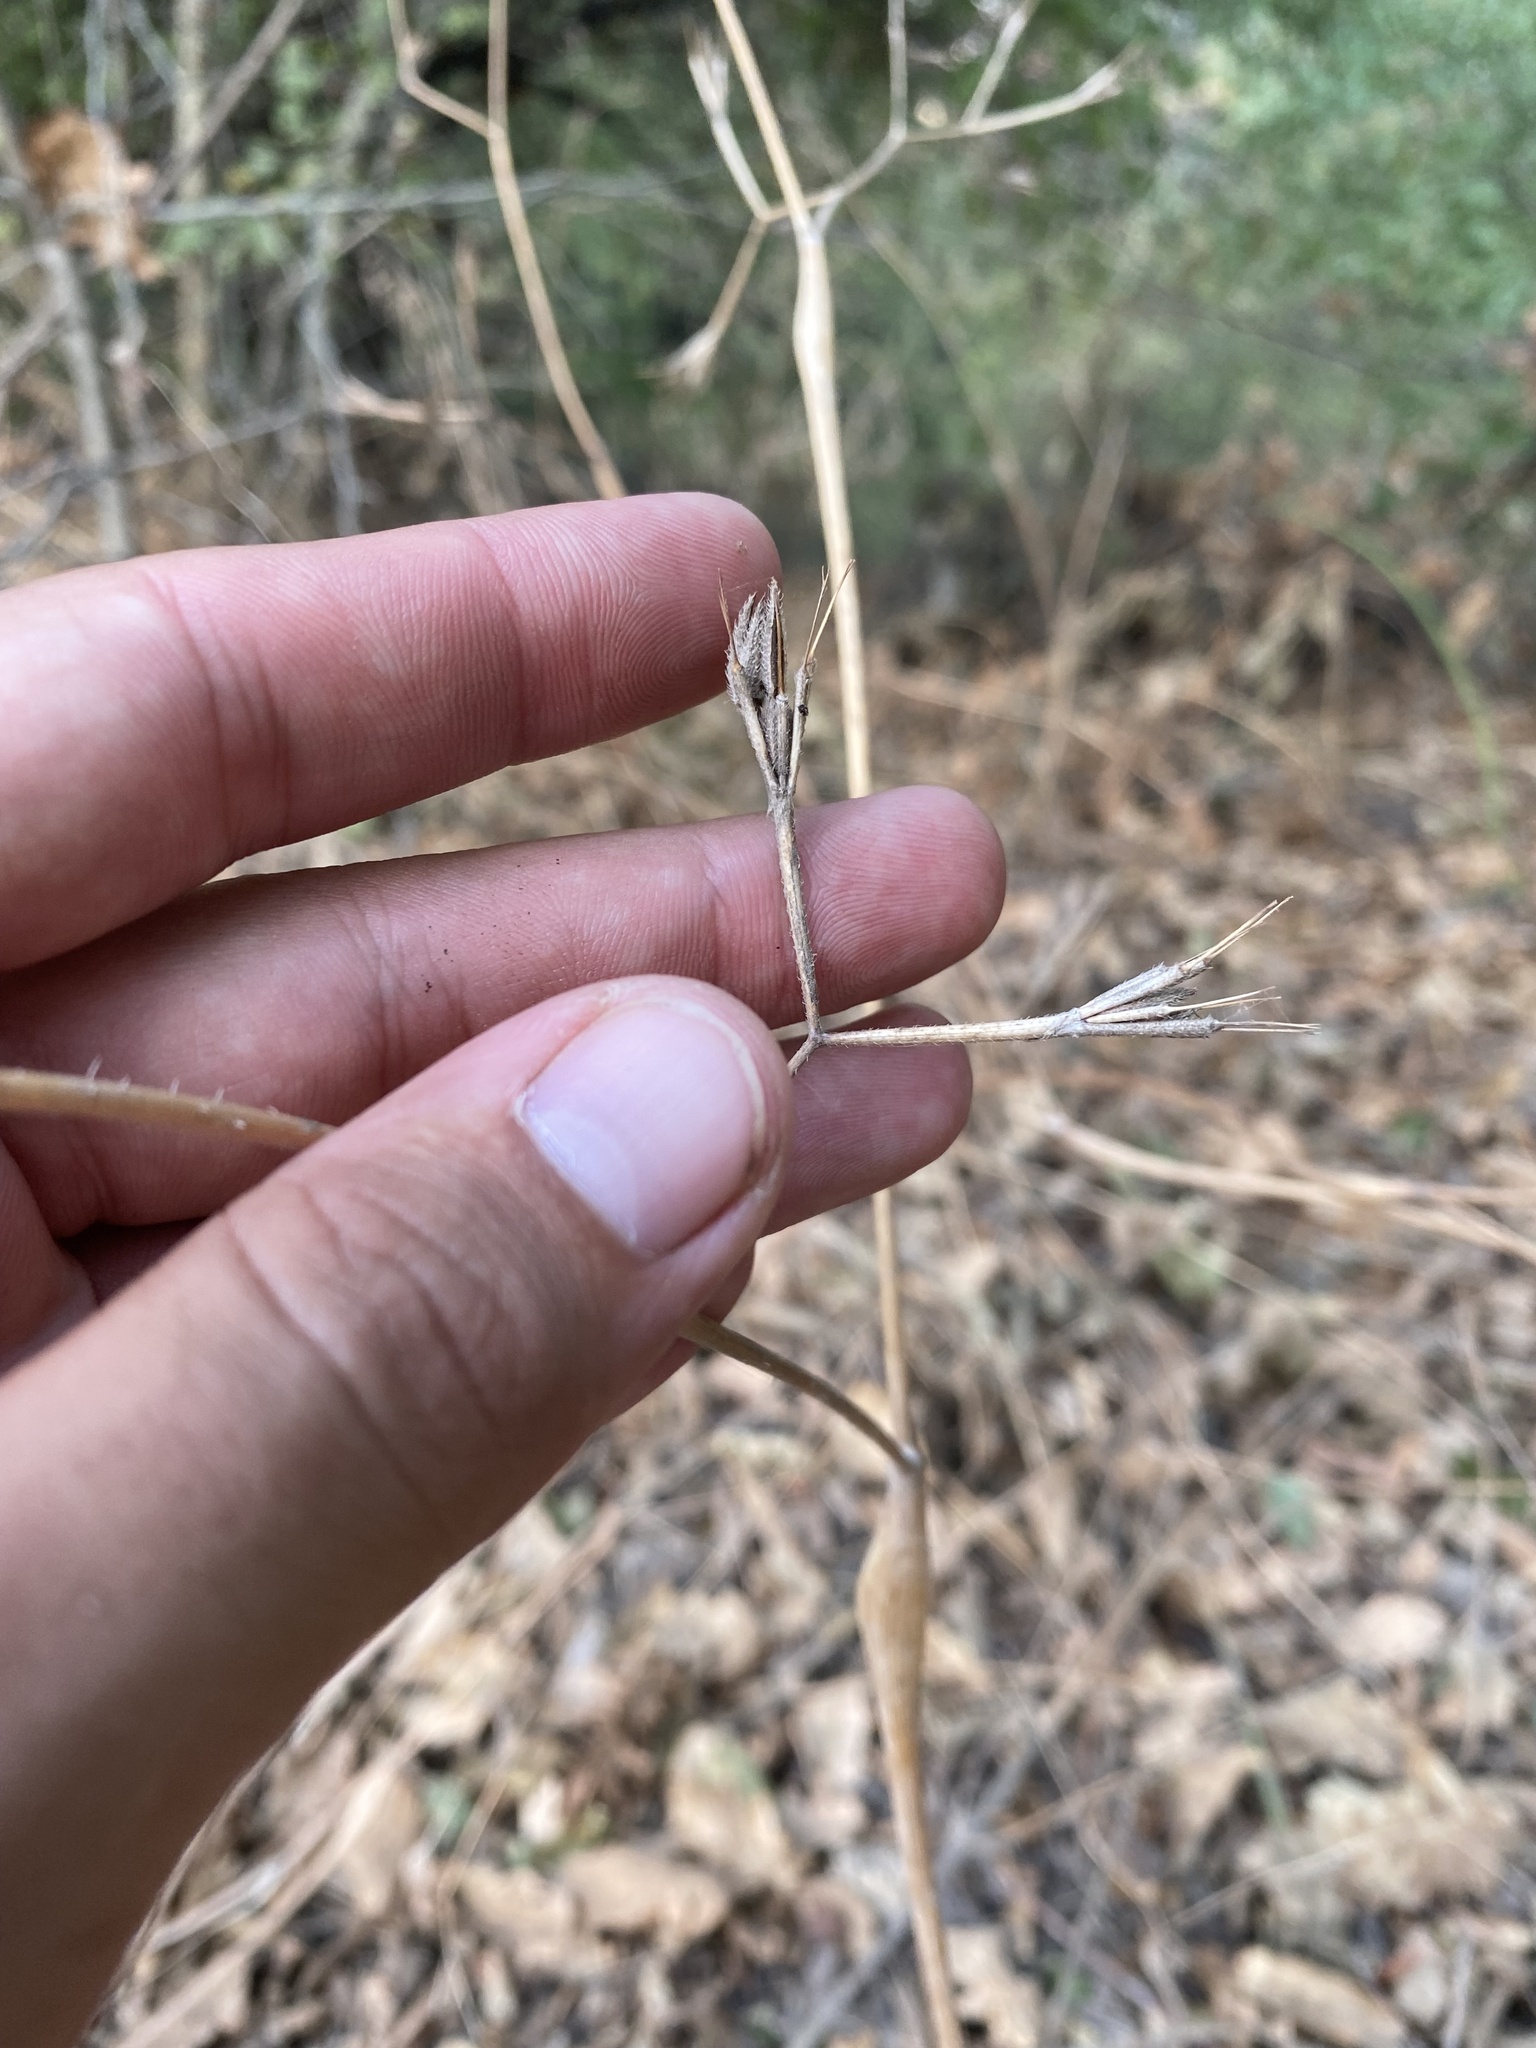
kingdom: Plantae
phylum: Tracheophyta
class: Magnoliopsida
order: Apiales
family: Apiaceae
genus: Chaerophyllum
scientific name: Chaerophyllum nodosum
